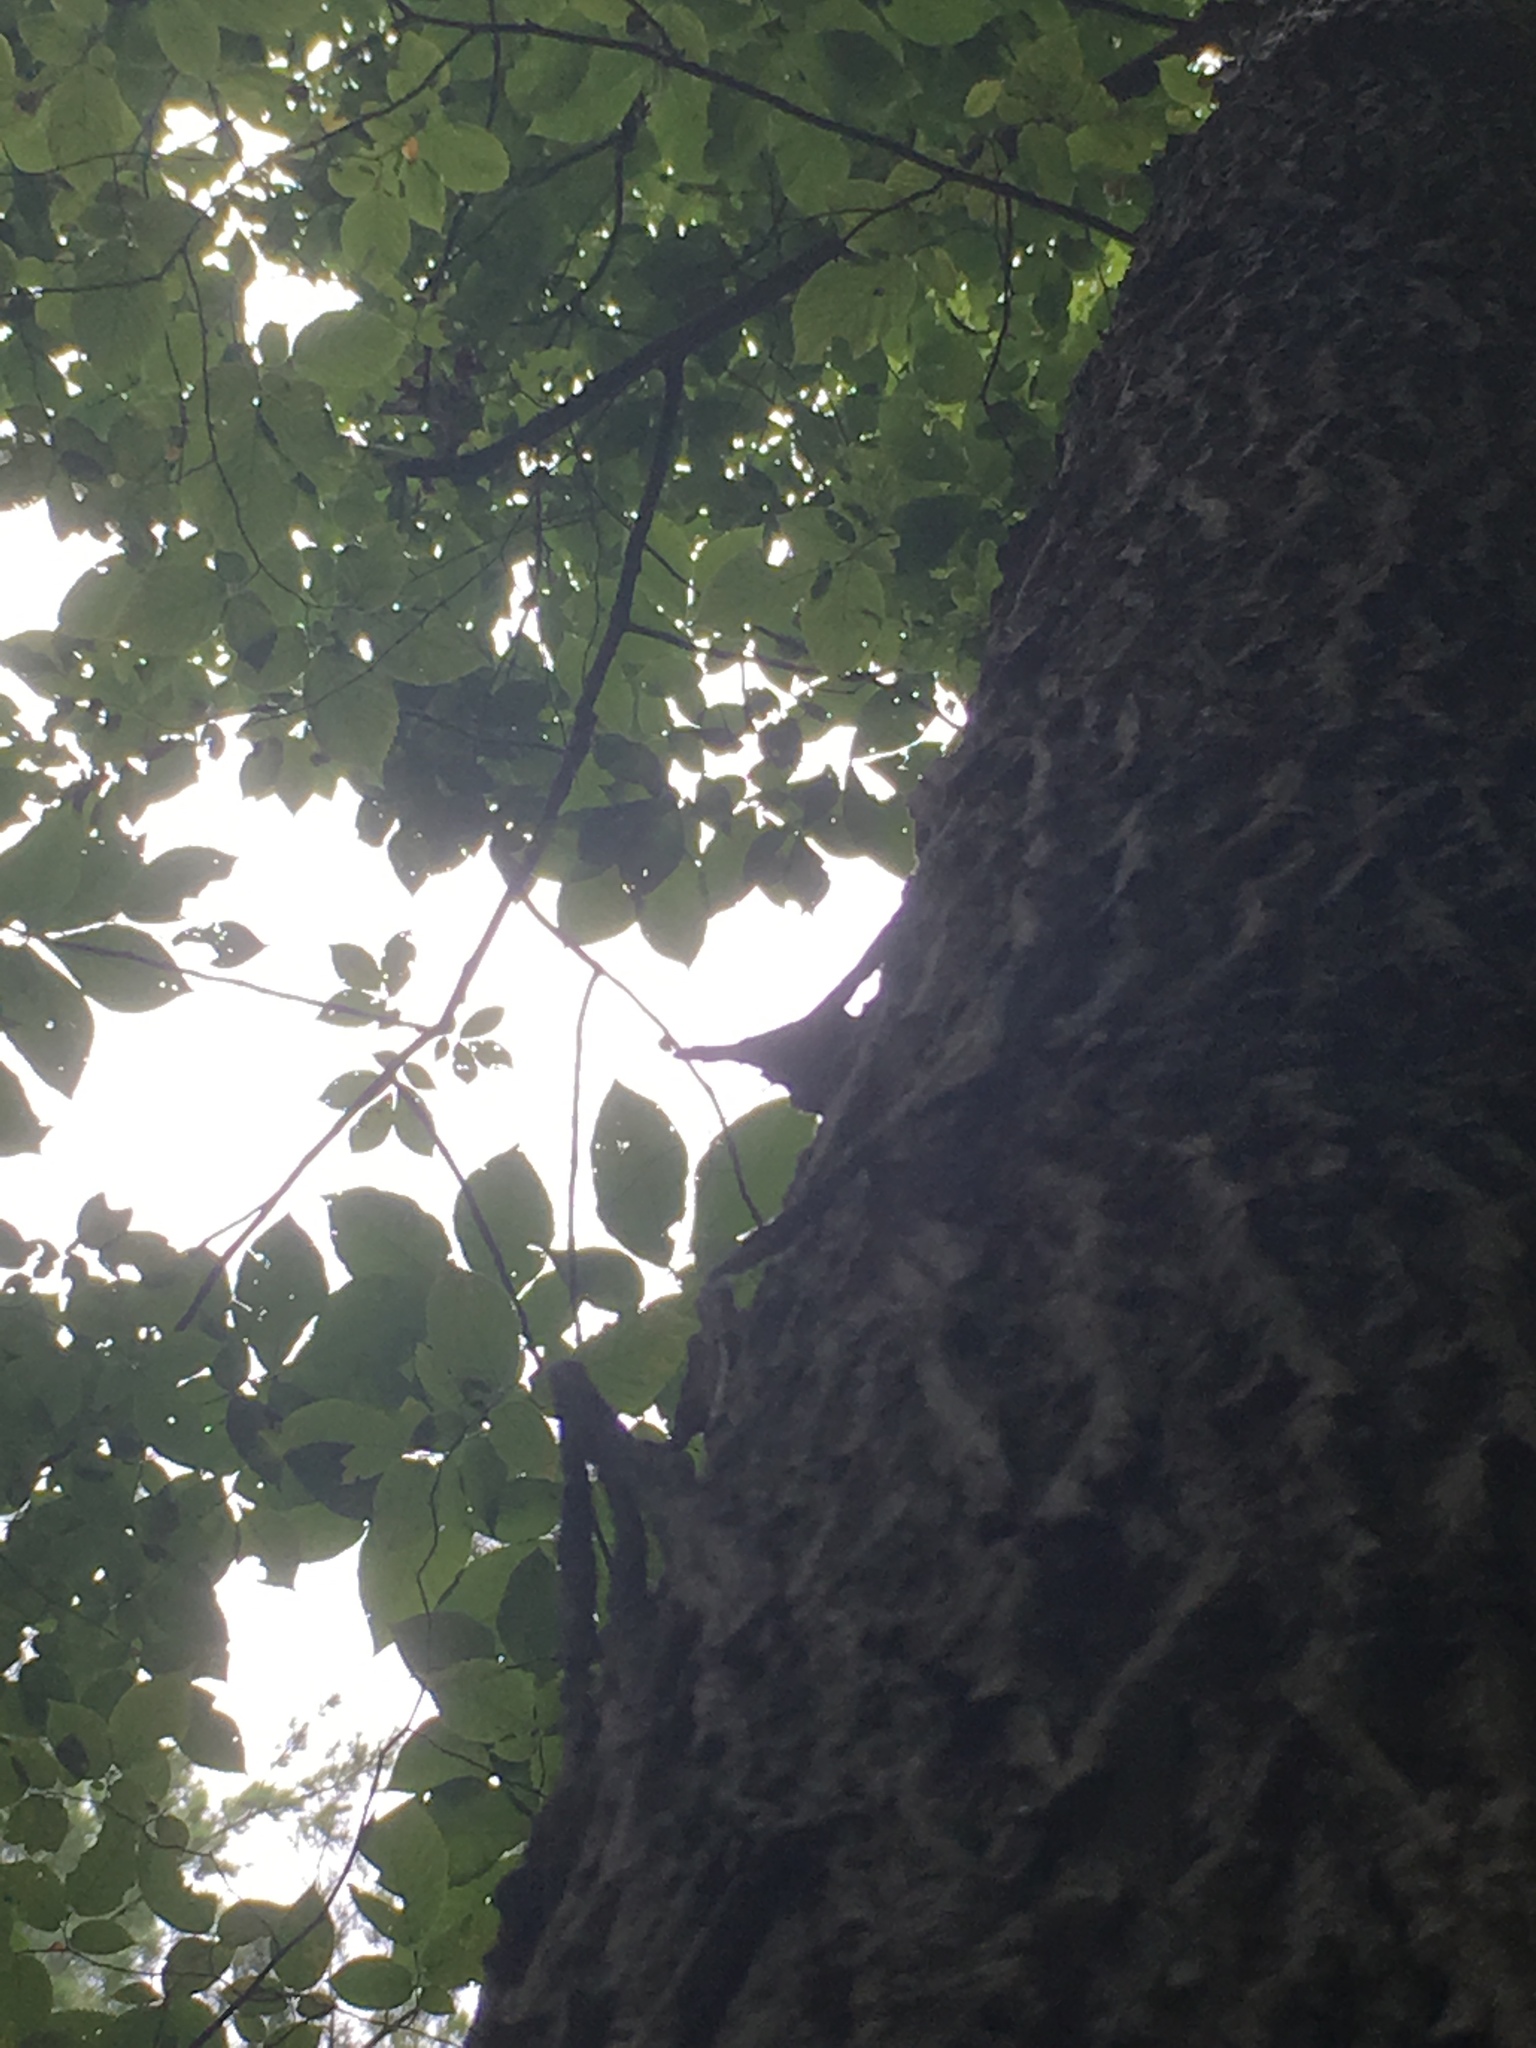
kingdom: Plantae
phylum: Tracheophyta
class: Magnoliopsida
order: Fagales
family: Juglandaceae
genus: Carya
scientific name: Carya glabra
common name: Pignut hickory
